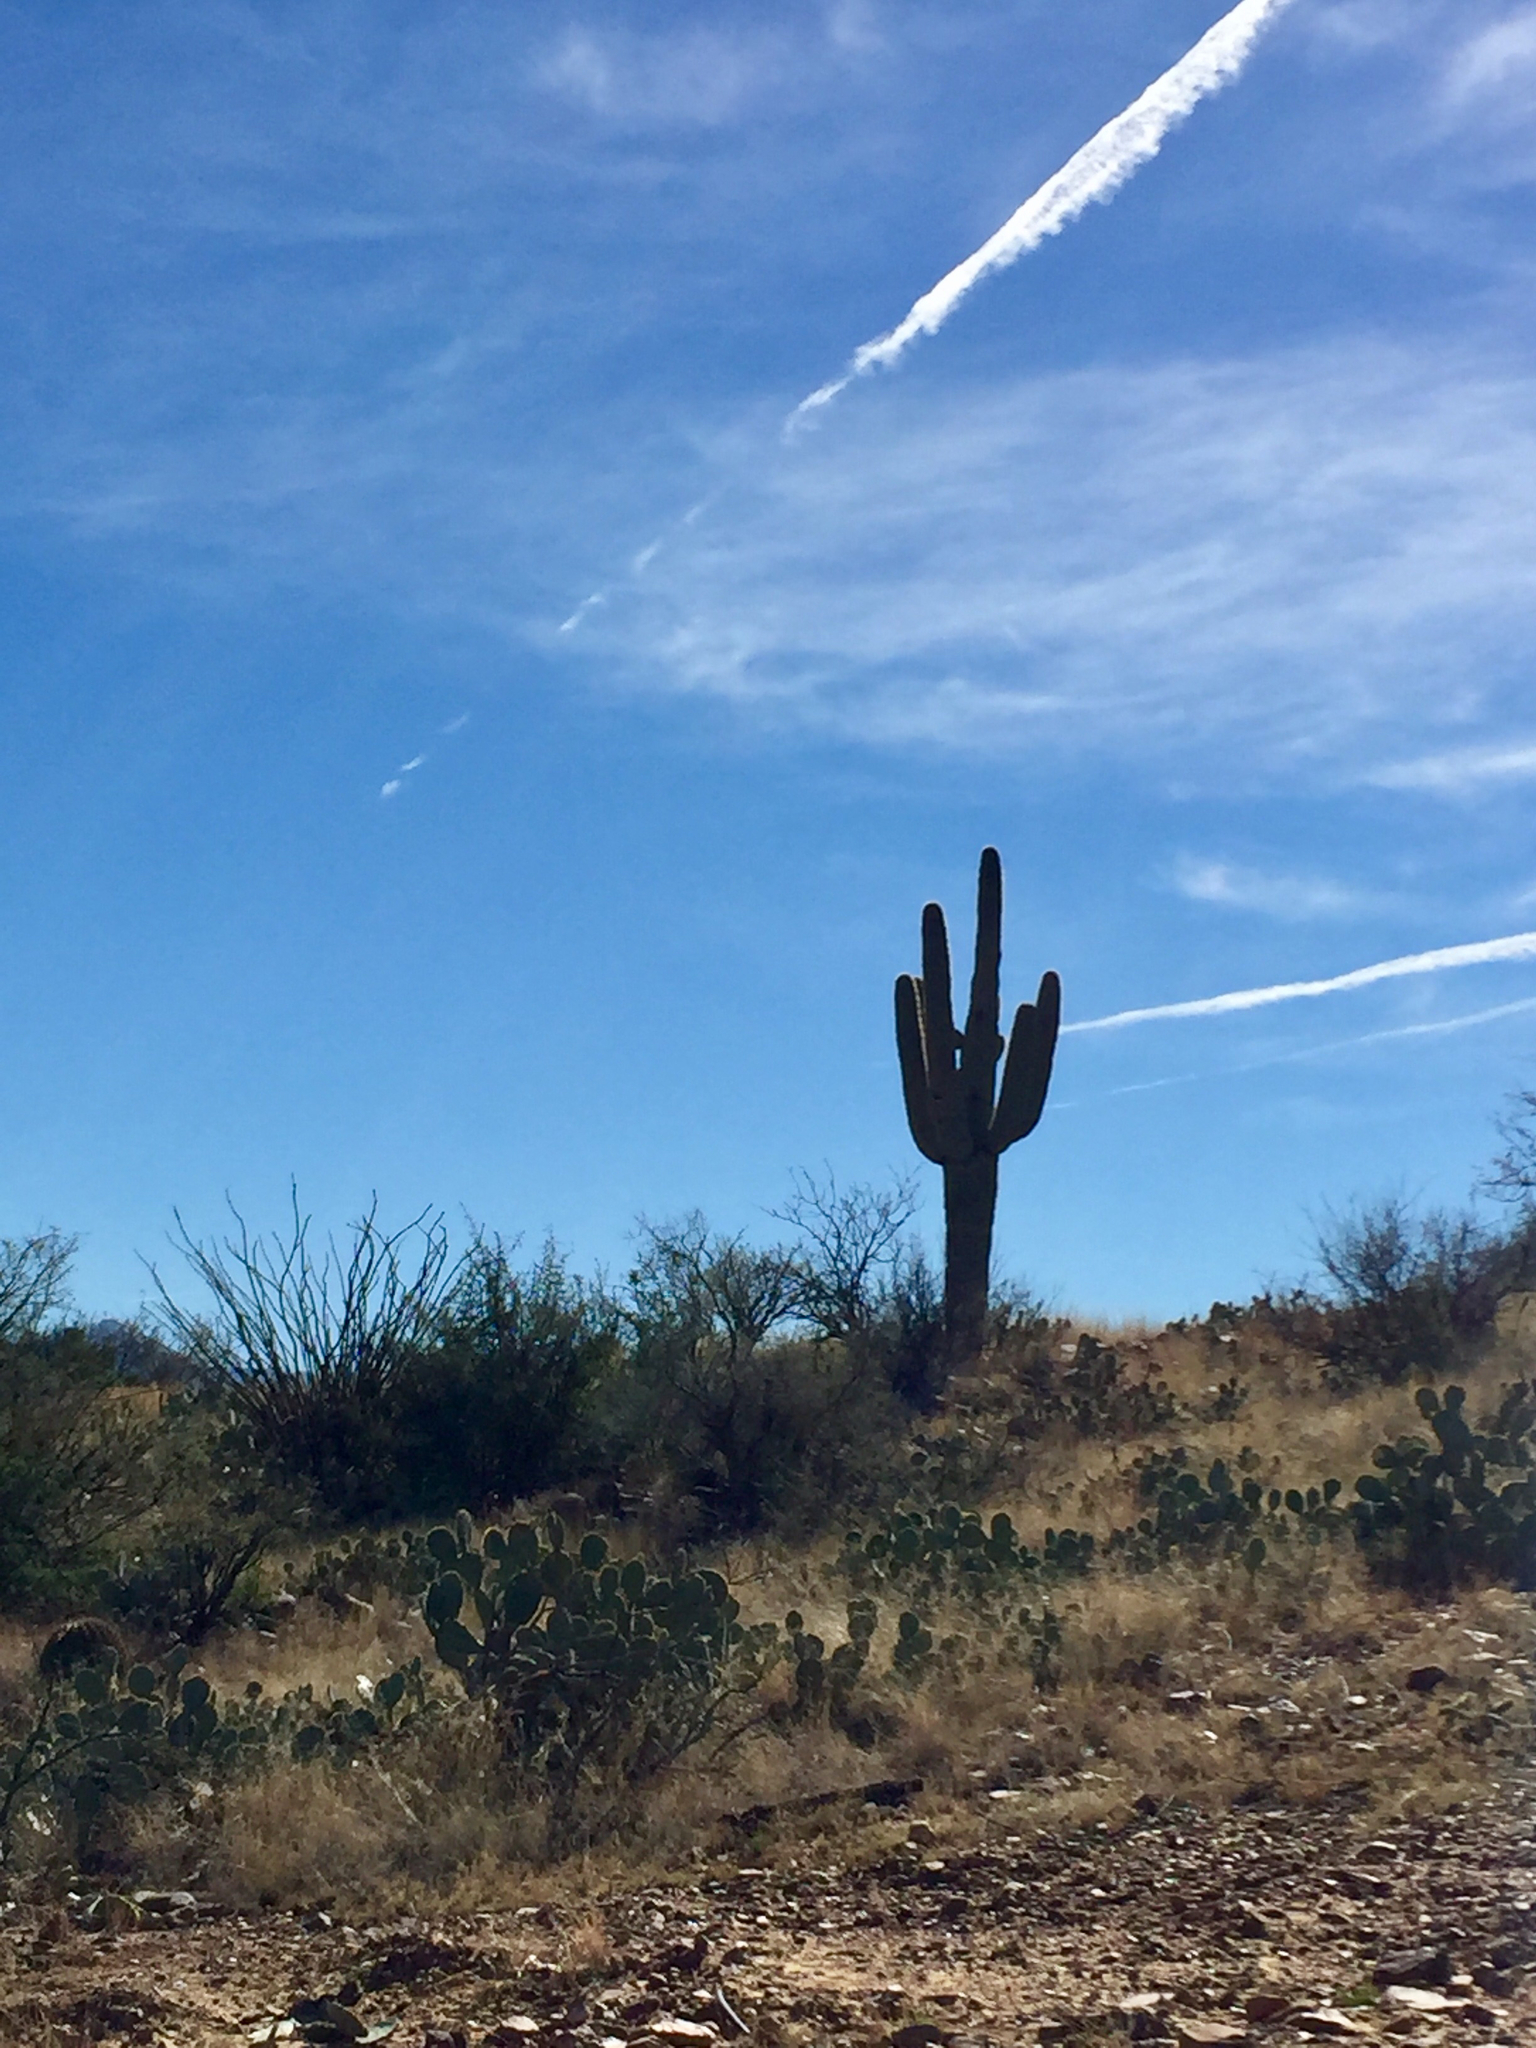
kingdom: Plantae
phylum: Tracheophyta
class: Magnoliopsida
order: Caryophyllales
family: Cactaceae
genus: Carnegiea
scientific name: Carnegiea gigantea
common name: Saguaro
